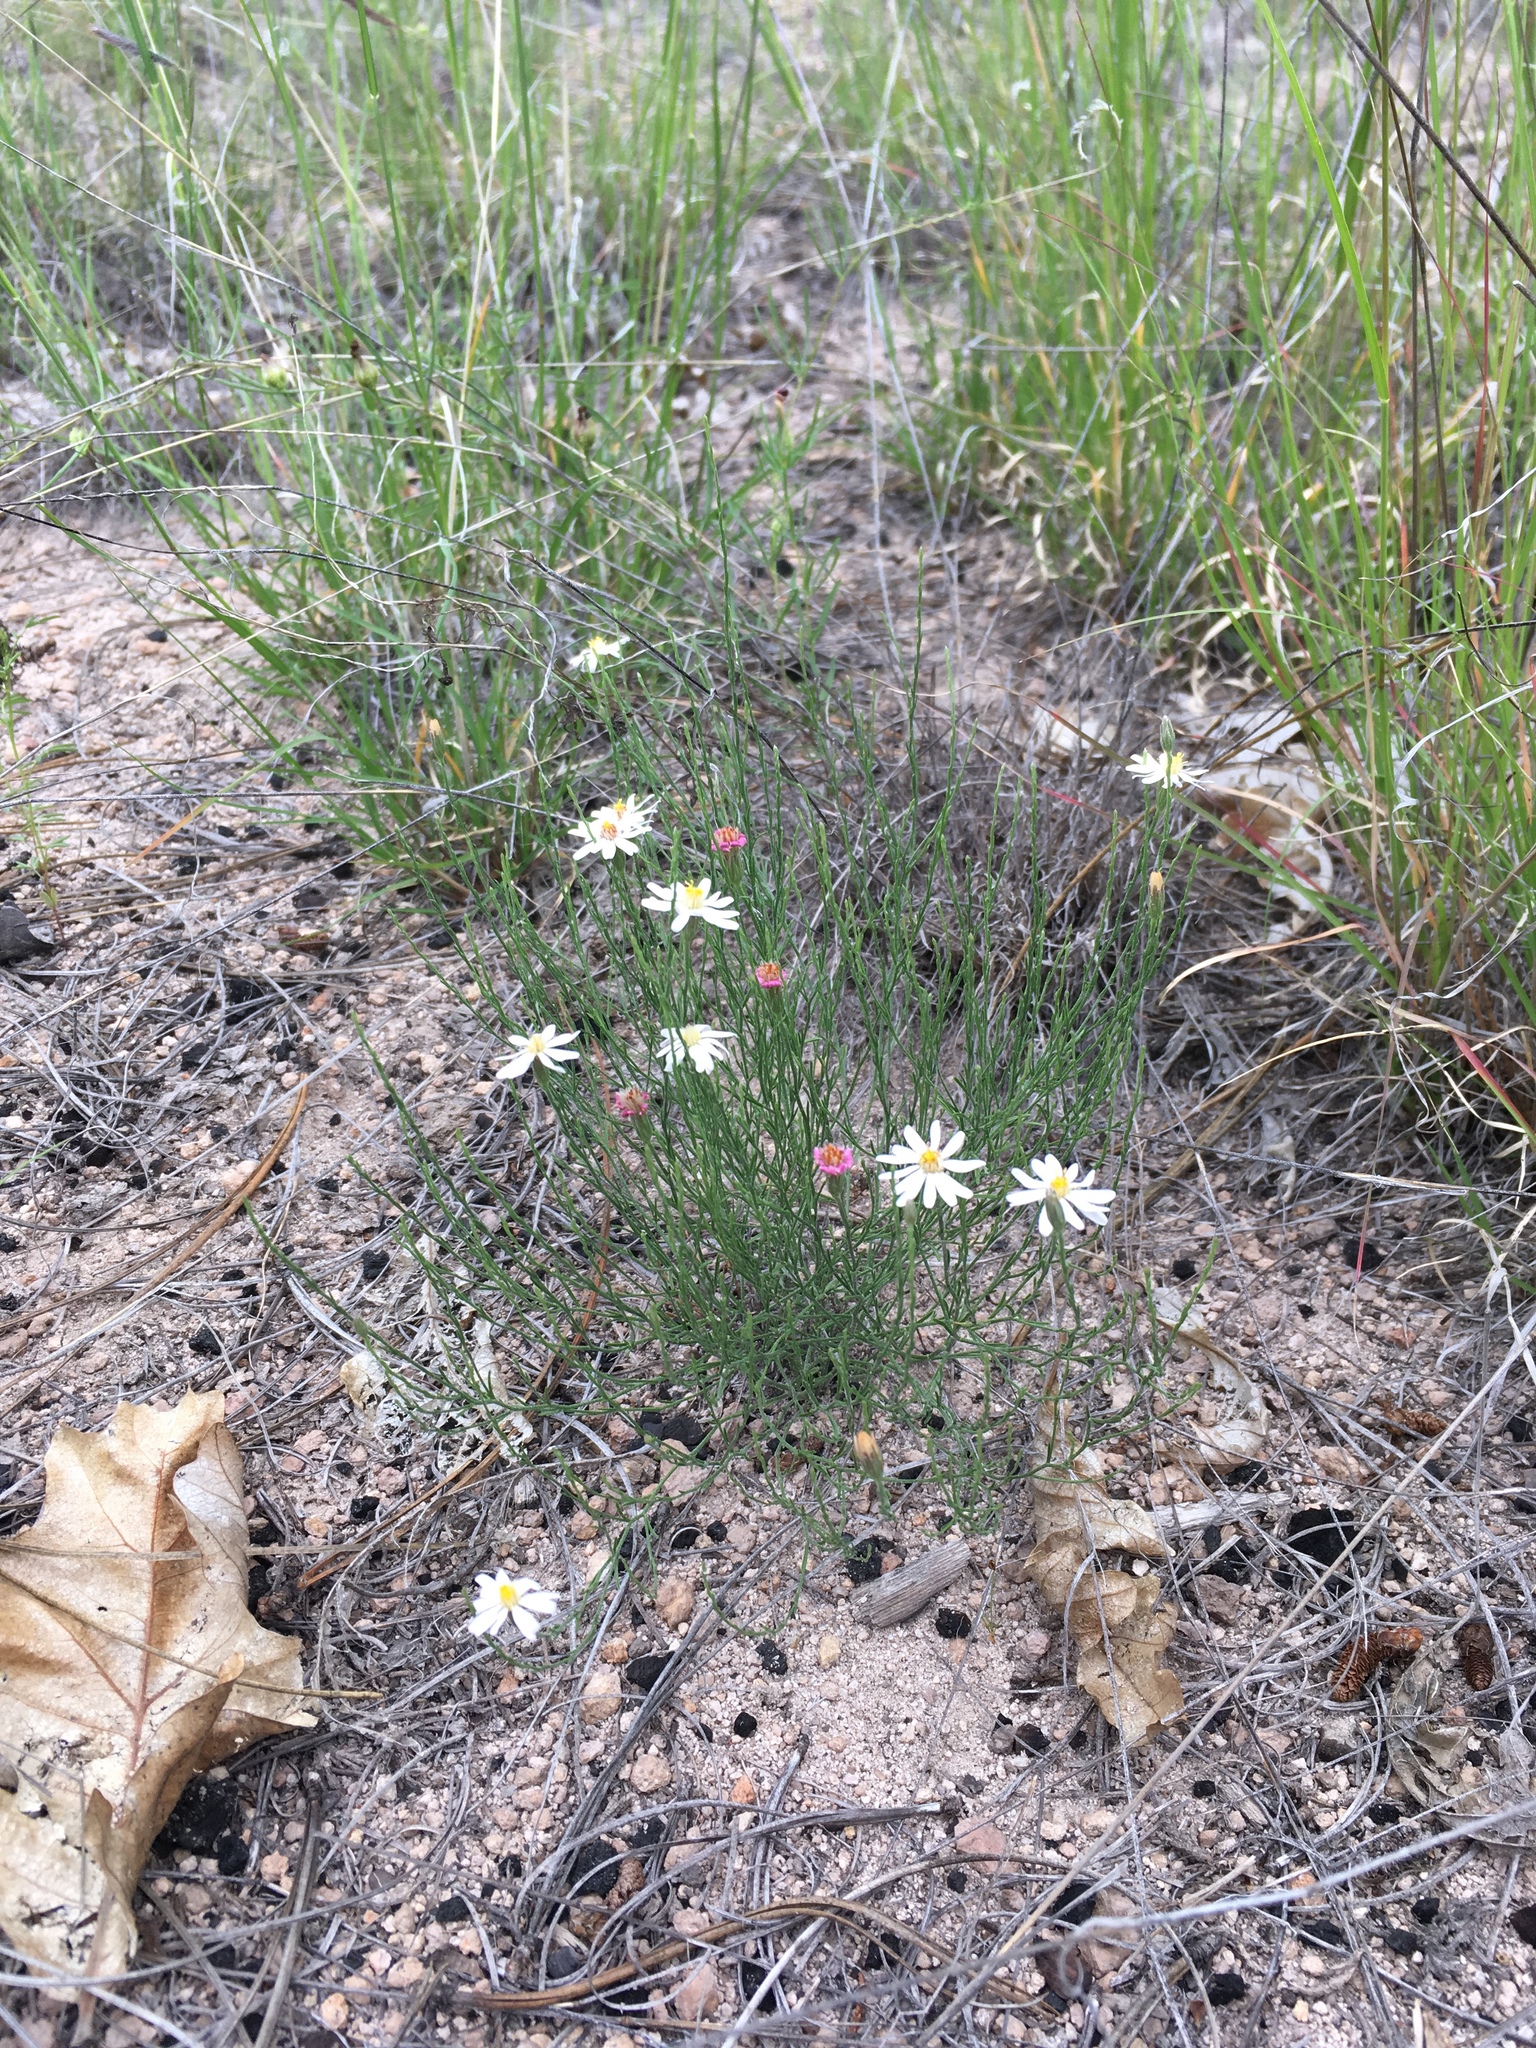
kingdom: Plantae
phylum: Tracheophyta
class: Magnoliopsida
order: Asterales
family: Asteraceae
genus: Chaetopappa
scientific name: Chaetopappa ericoides
